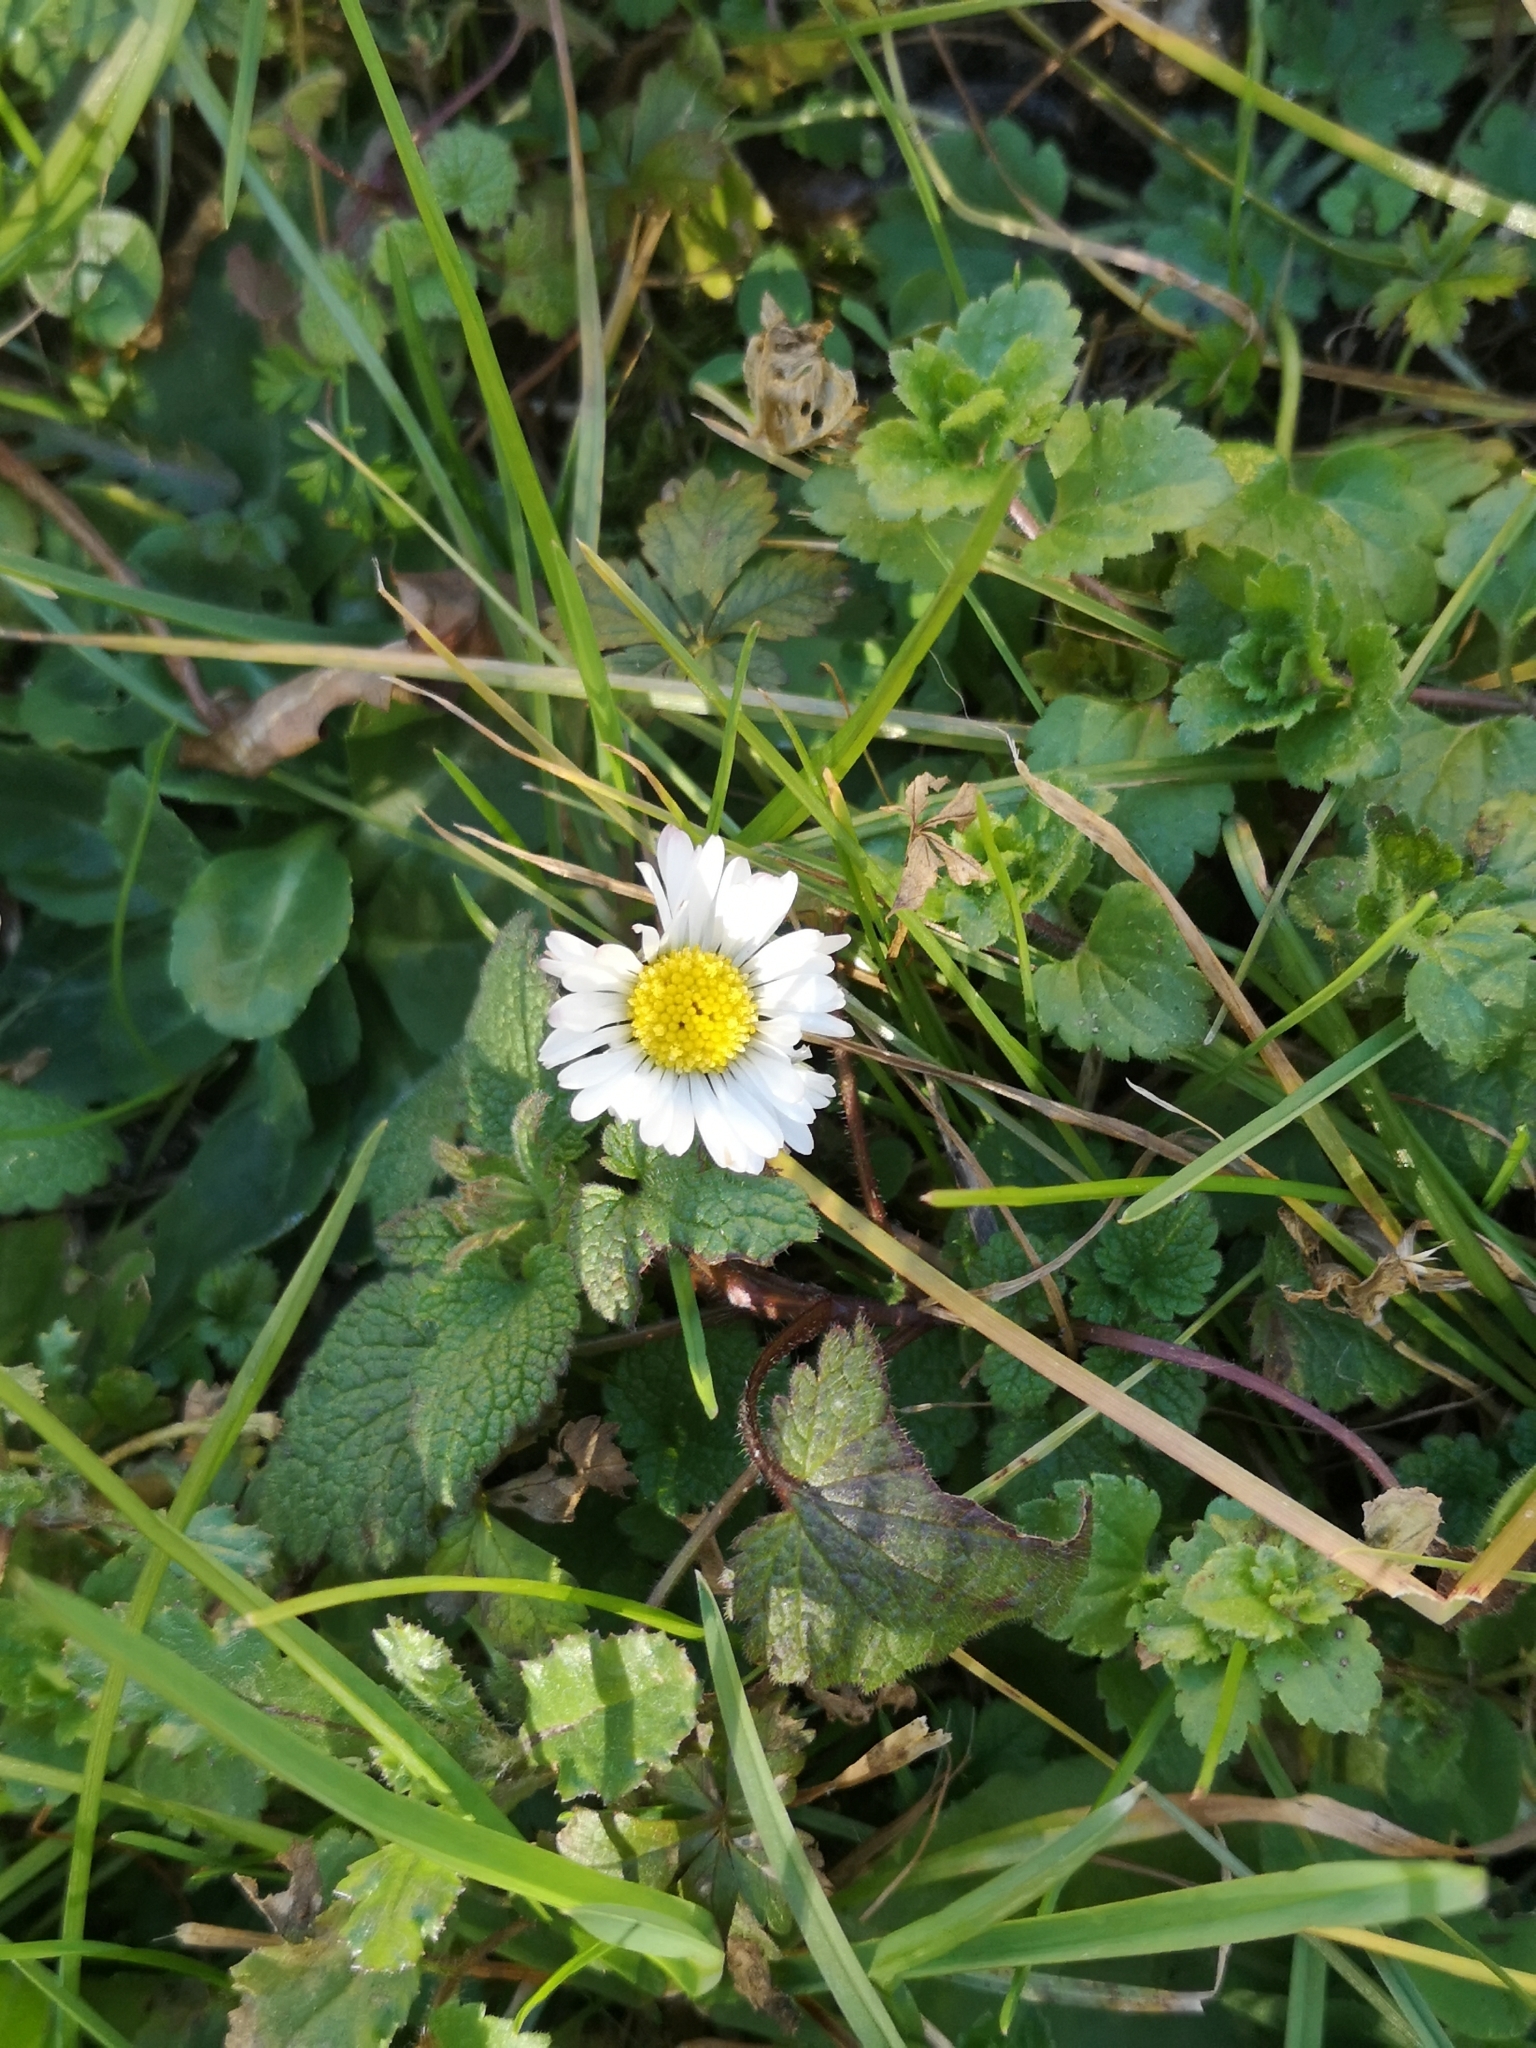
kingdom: Plantae
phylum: Tracheophyta
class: Magnoliopsida
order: Asterales
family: Asteraceae
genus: Bellis
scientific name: Bellis perennis
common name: Lawndaisy
